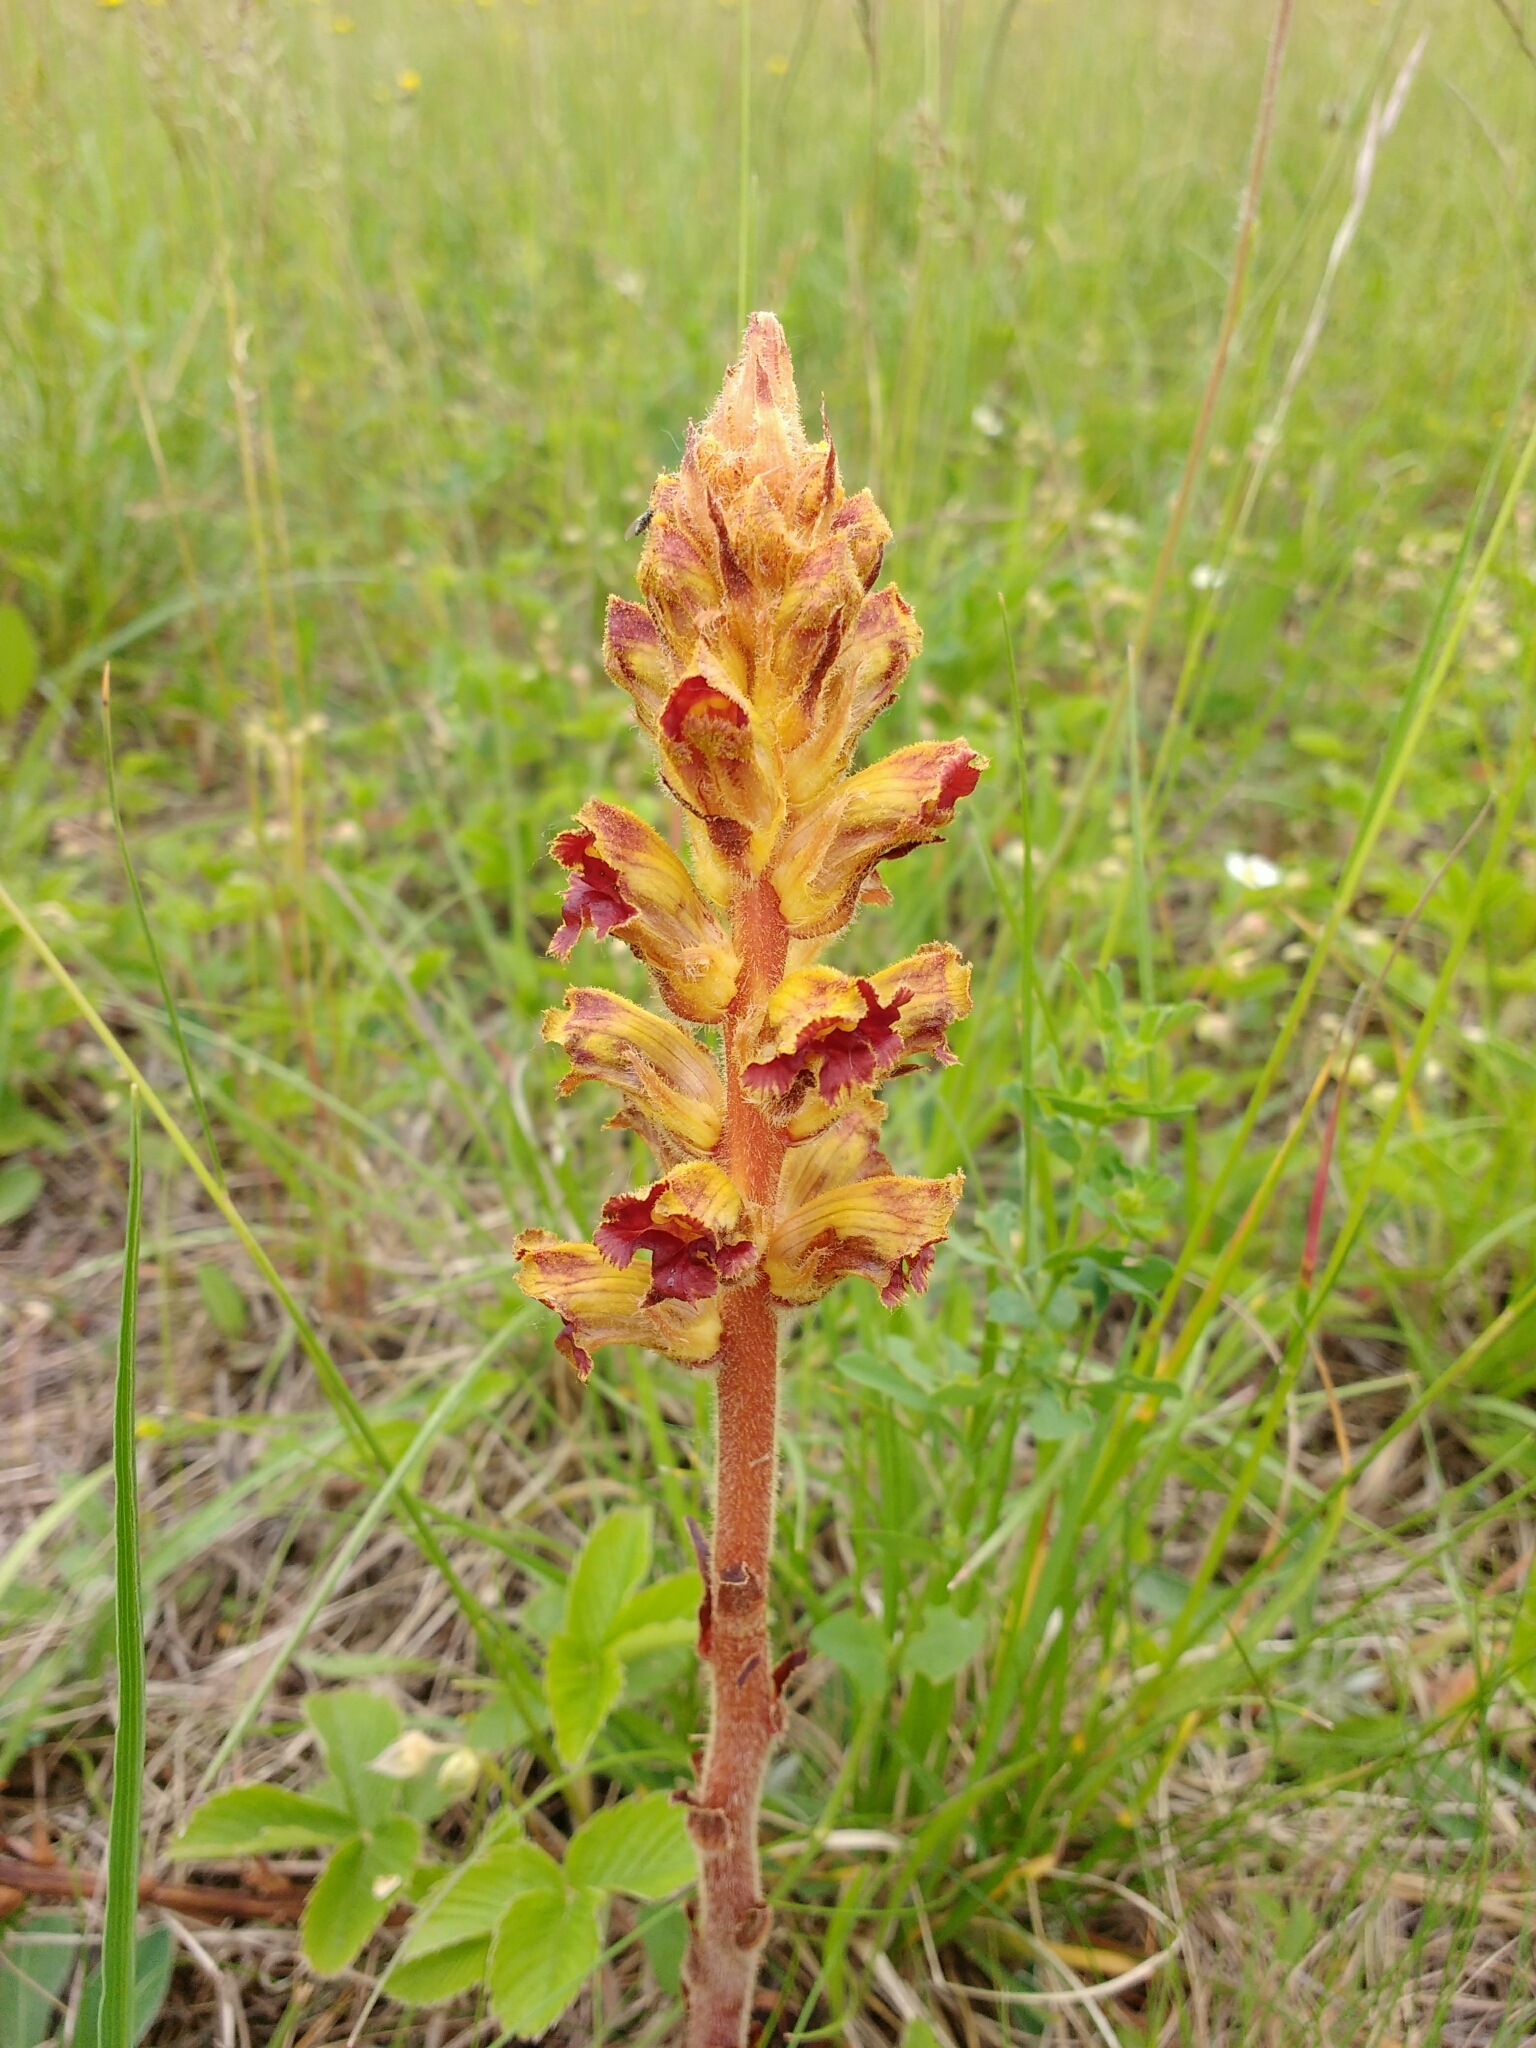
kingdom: Plantae
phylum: Tracheophyta
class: Magnoliopsida
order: Lamiales
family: Orobanchaceae
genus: Orobanche
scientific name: Orobanche gracilis
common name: Slender broomrape
